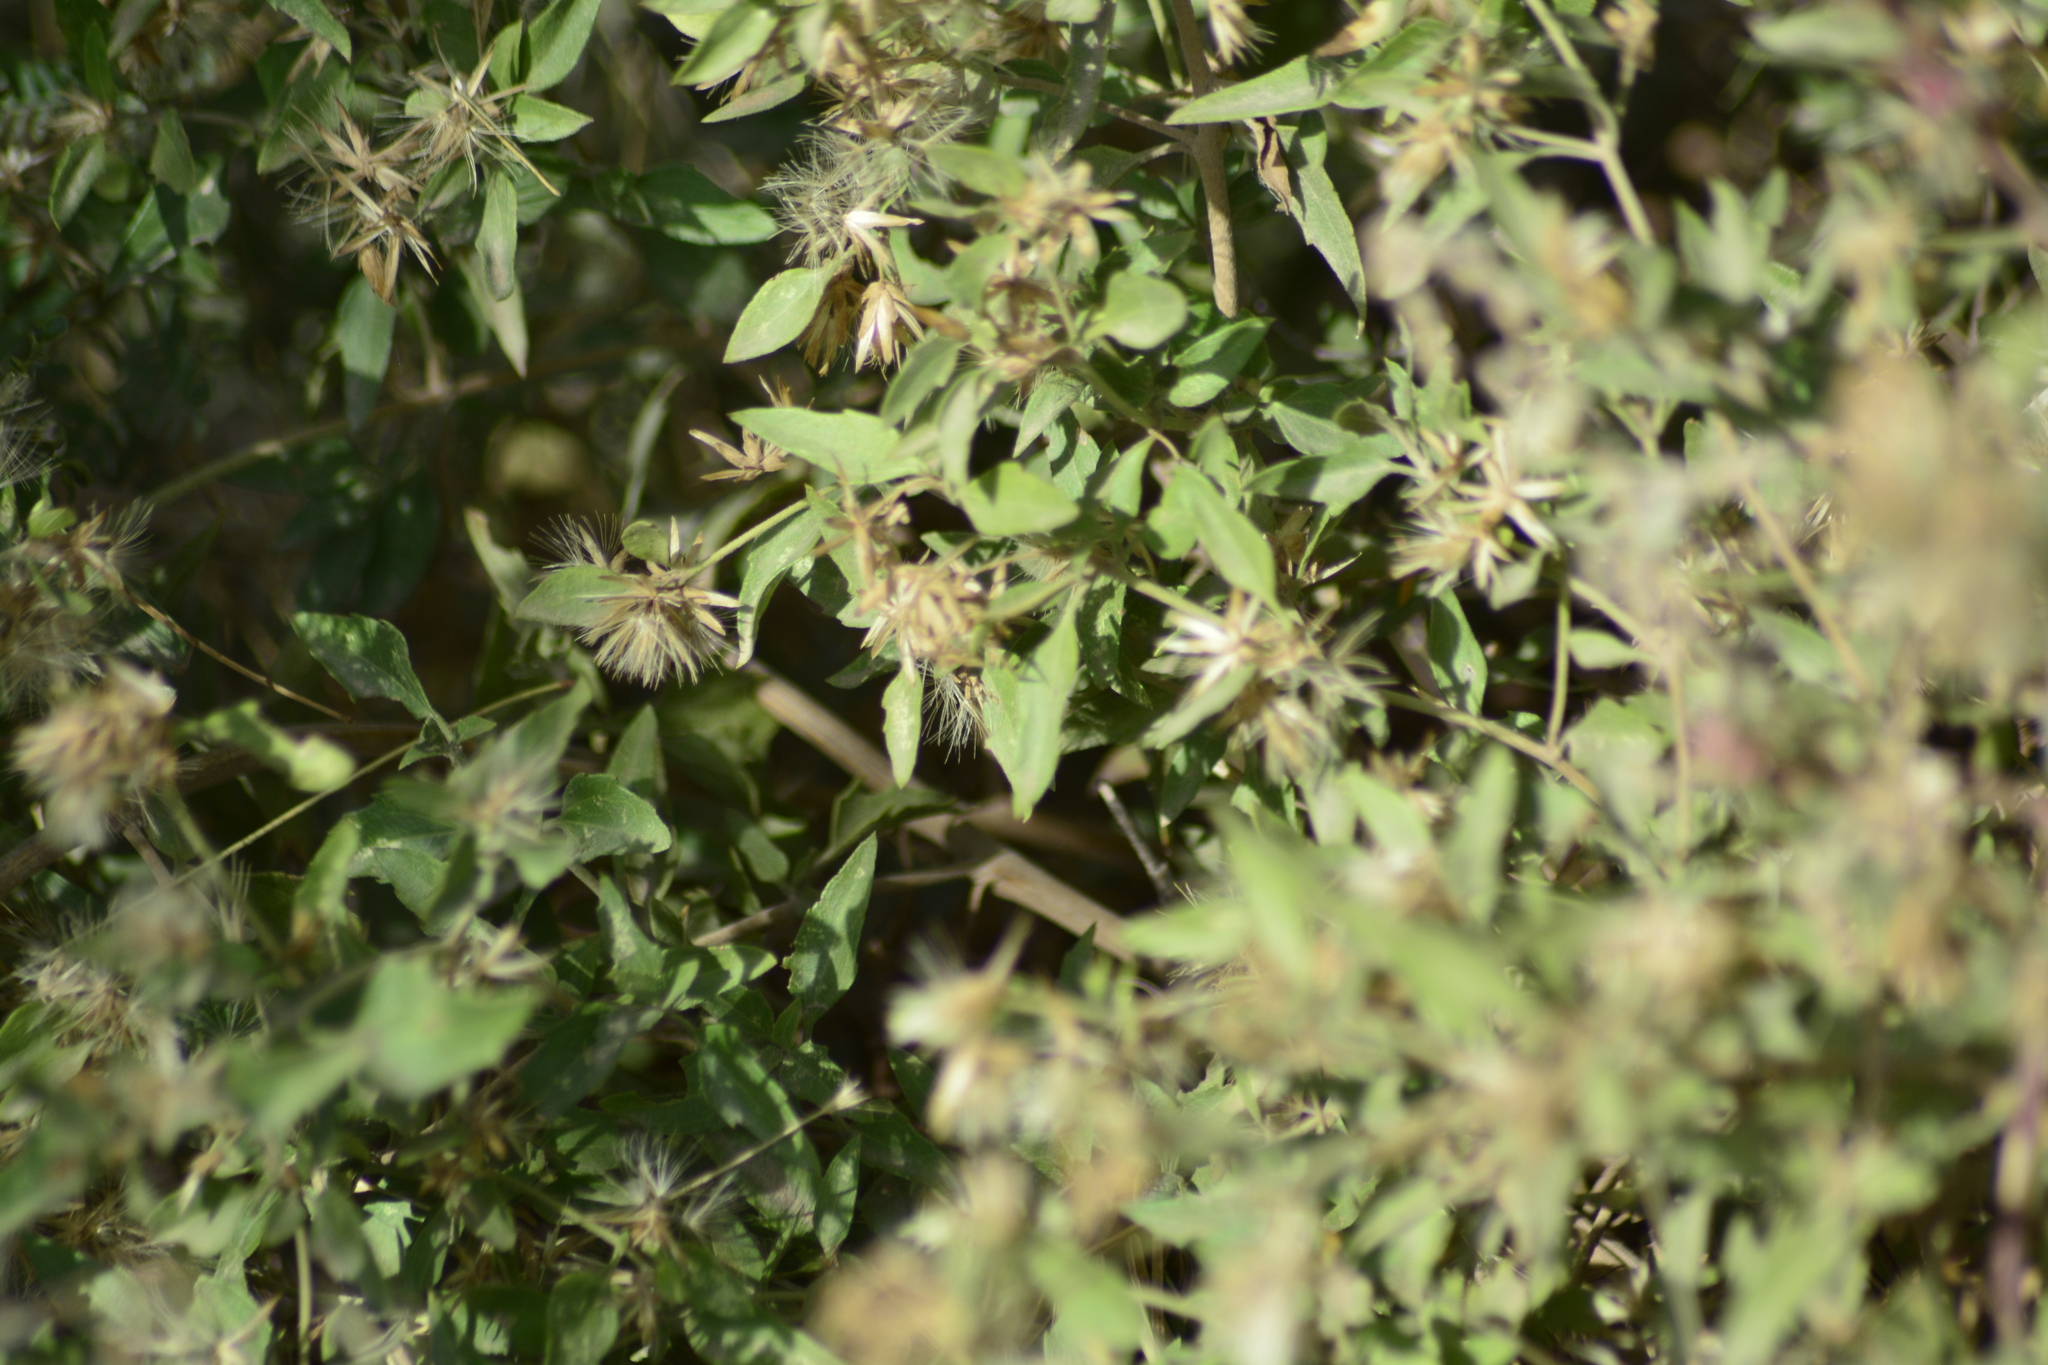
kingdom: Plantae
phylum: Tracheophyta
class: Magnoliopsida
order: Asterales
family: Asteraceae
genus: Austrobrickellia
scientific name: Austrobrickellia patens
